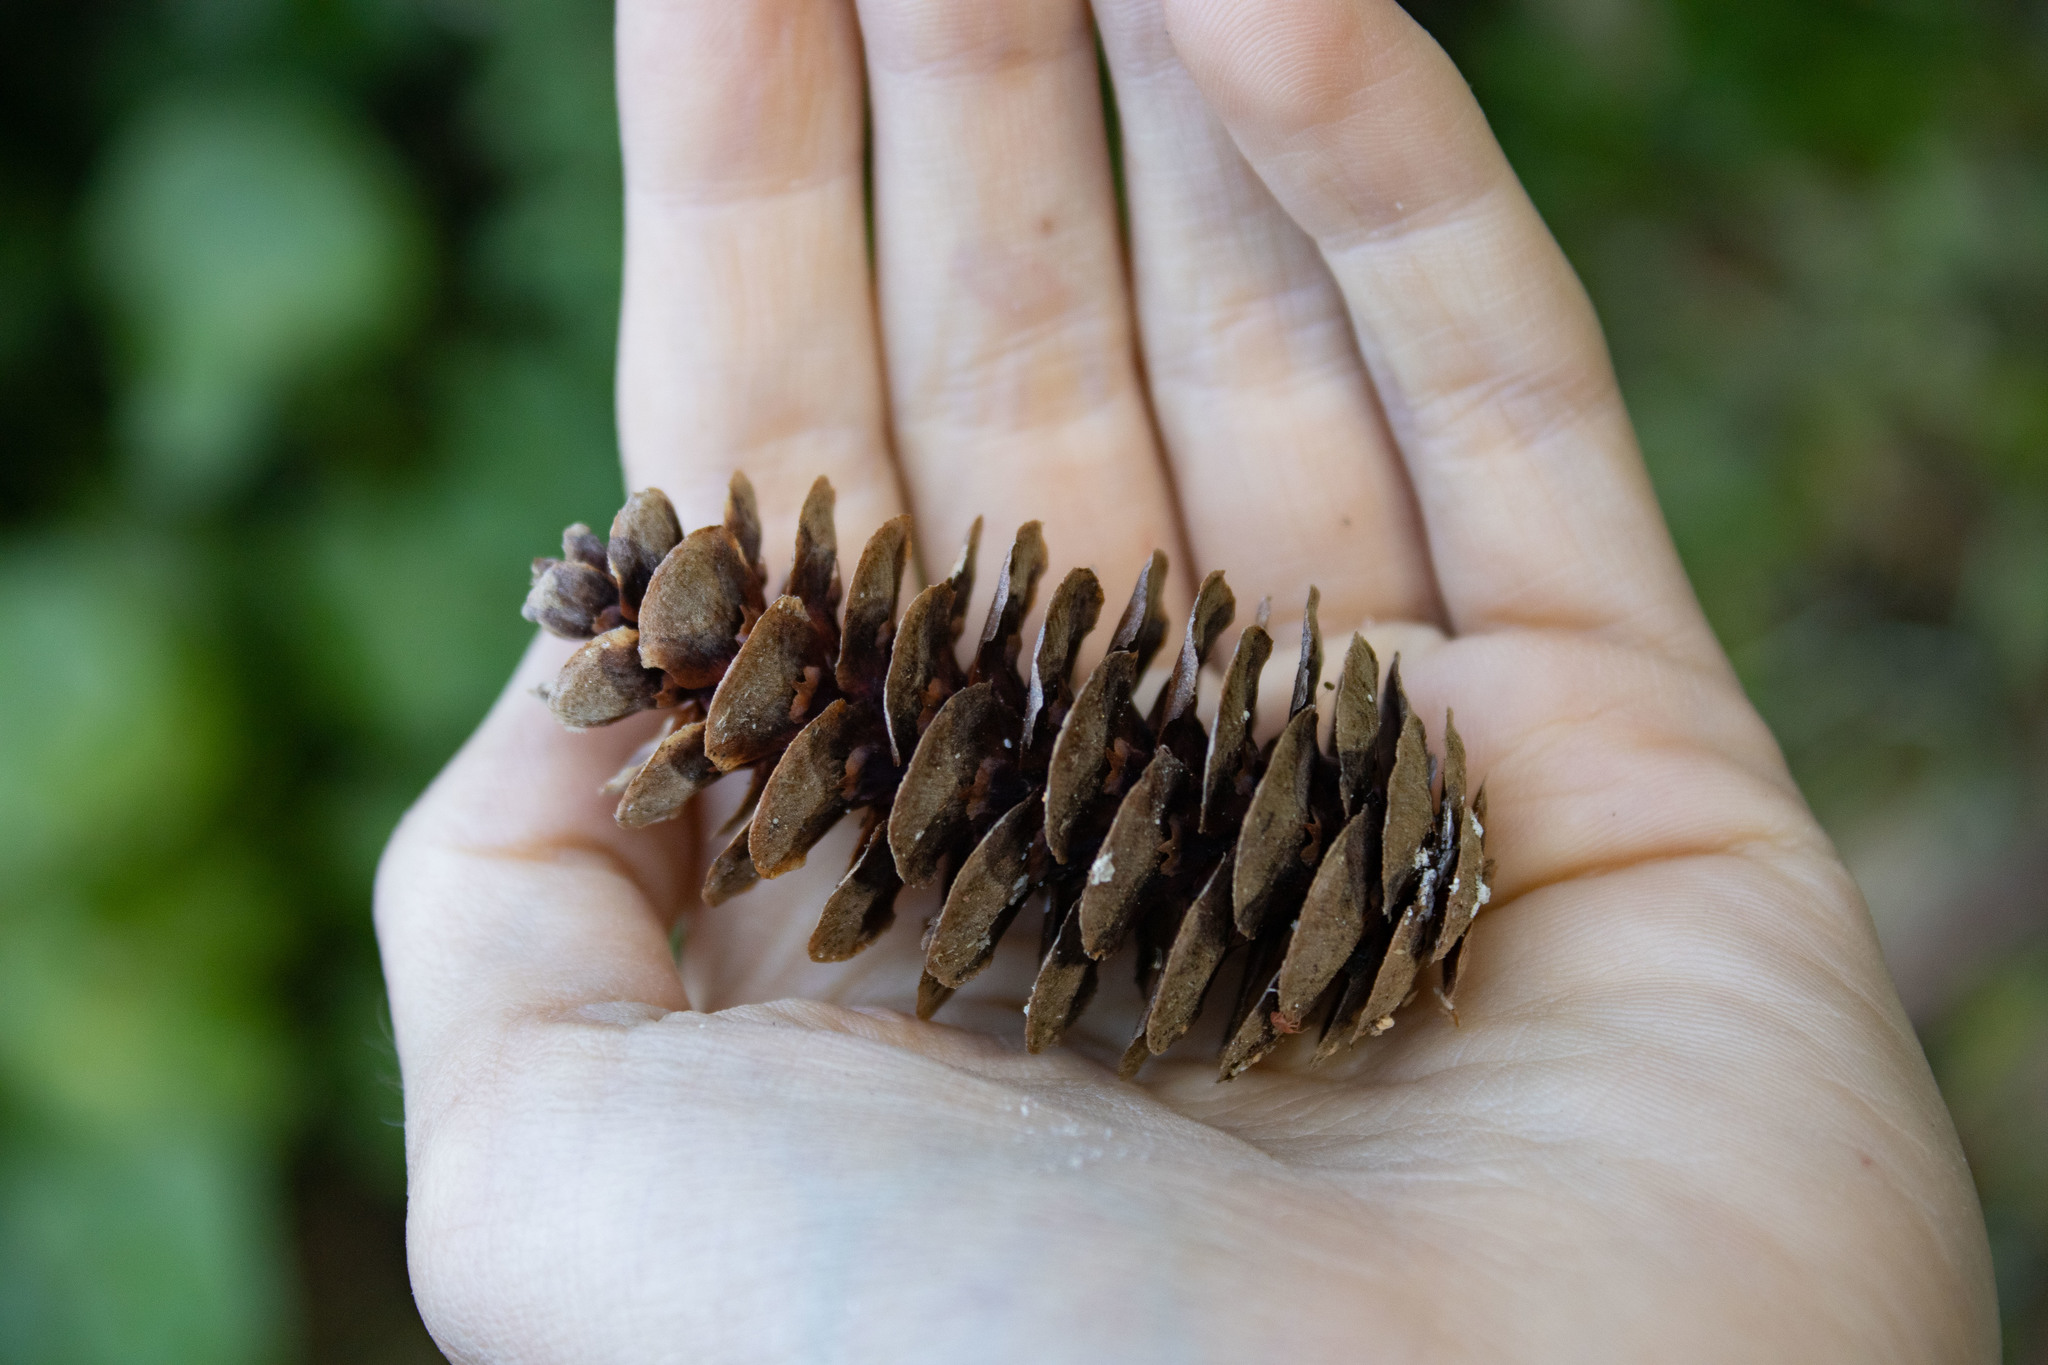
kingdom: Plantae
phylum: Tracheophyta
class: Pinopsida
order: Pinales
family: Pinaceae
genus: Tsuga
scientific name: Tsuga mertensiana
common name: Mountain hemlock
